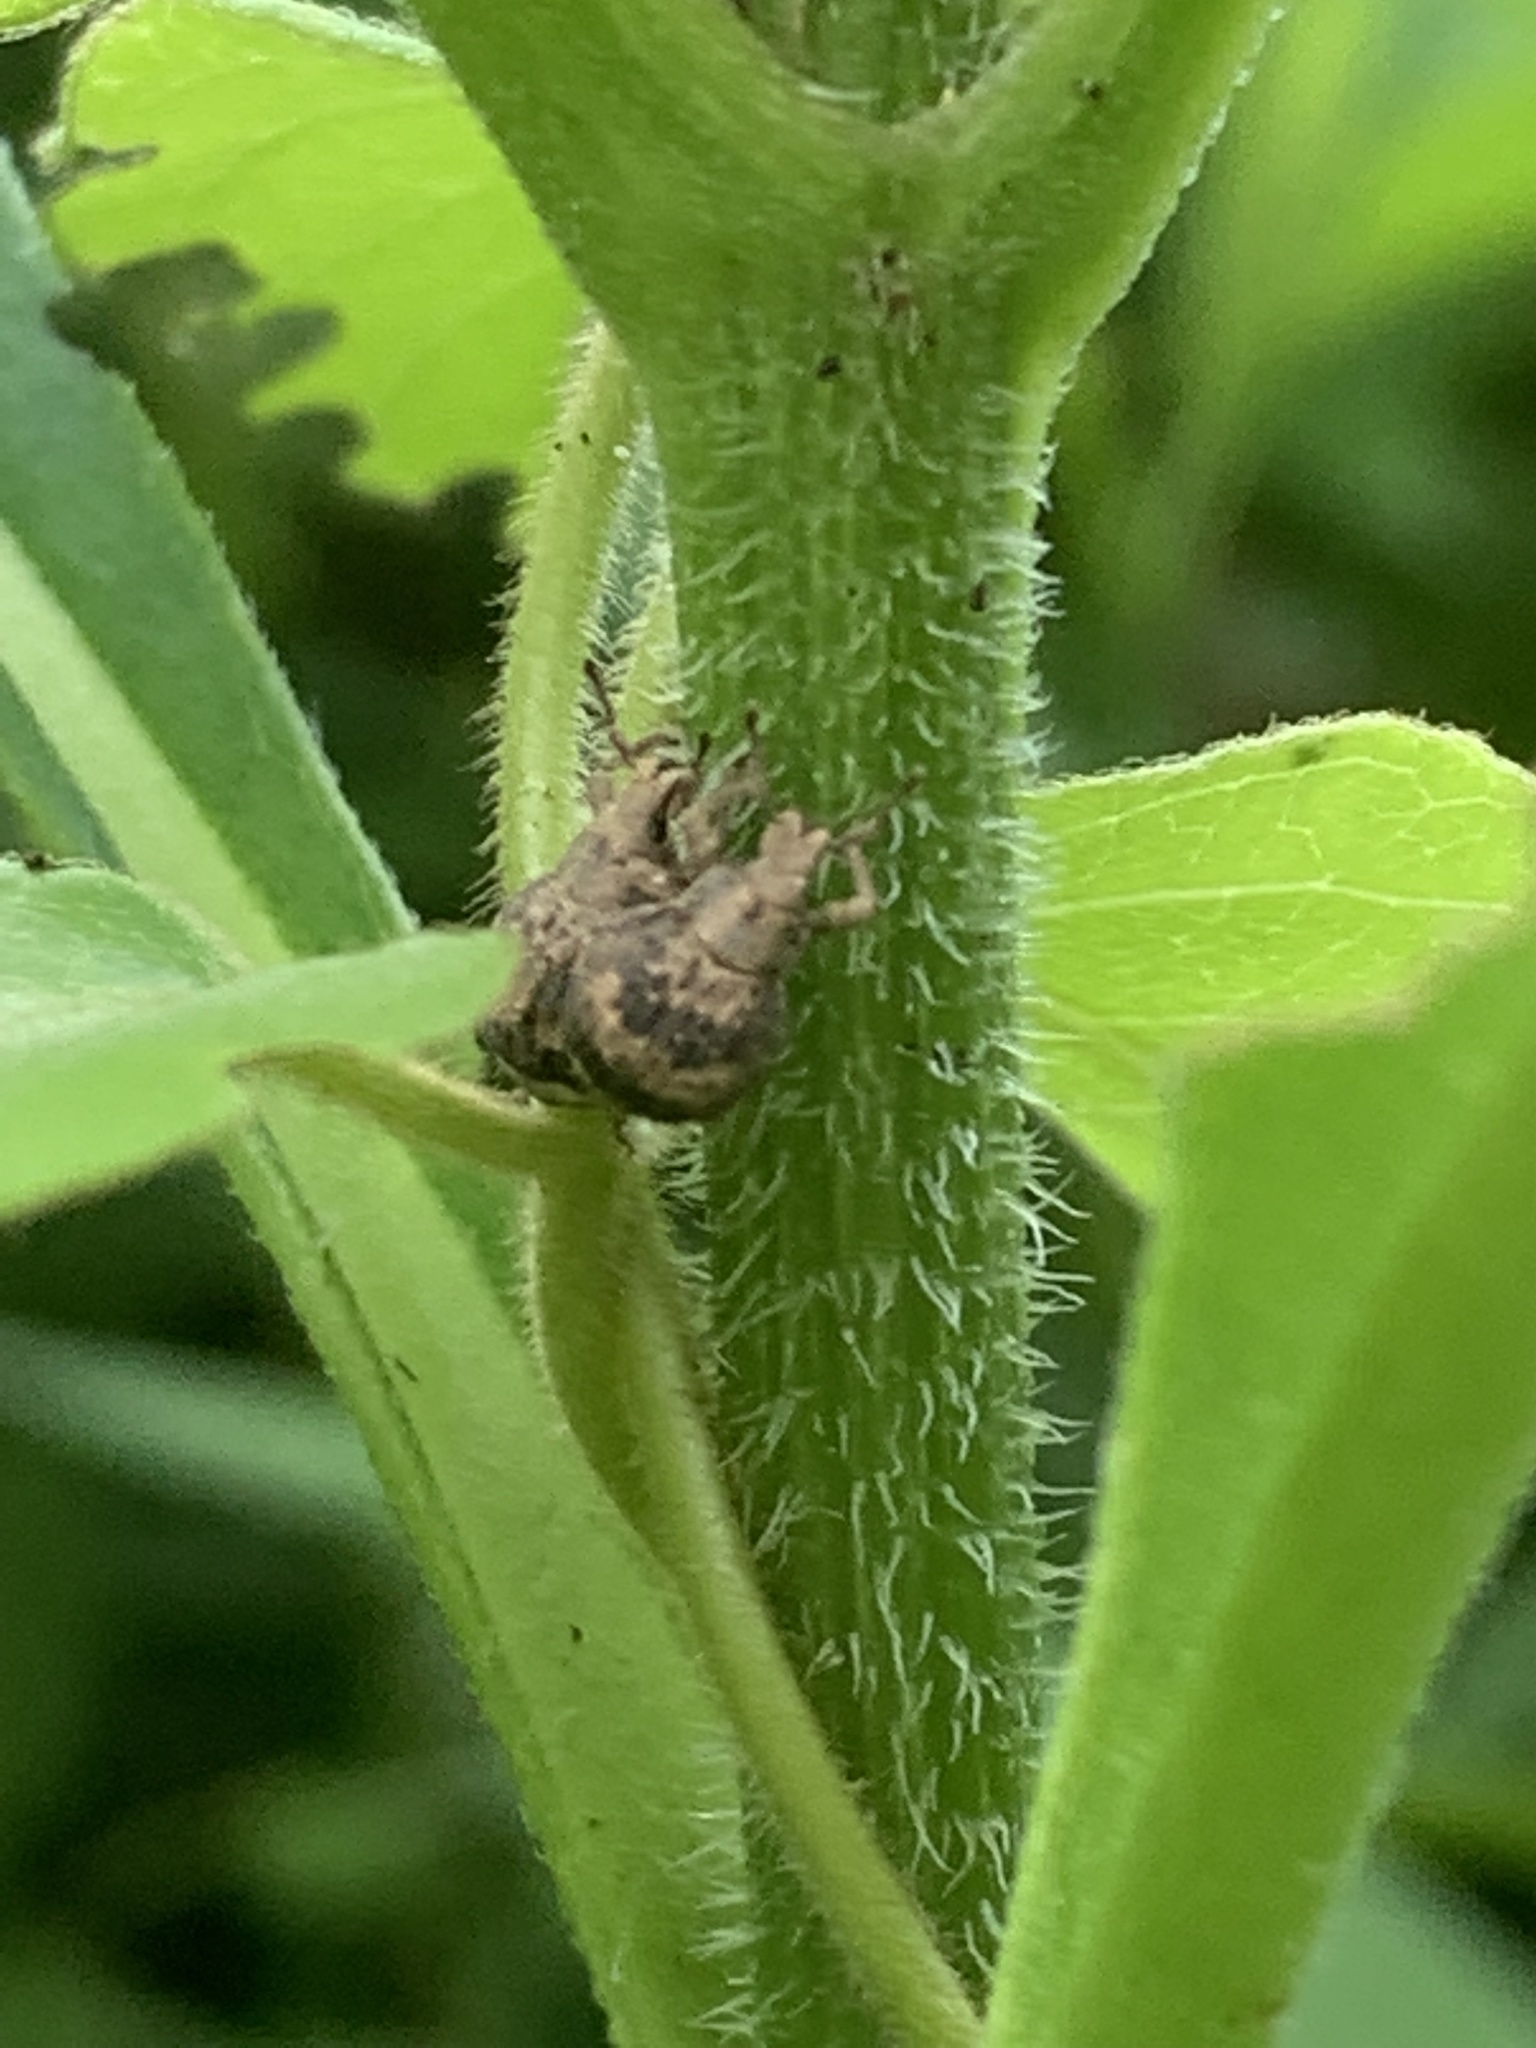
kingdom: Animalia
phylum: Arthropoda
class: Insecta
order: Coleoptera
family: Curculionidae
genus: Pseudocneorhinus
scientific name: Pseudocneorhinus bifasciatus
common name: Two-banded japanese weevil
